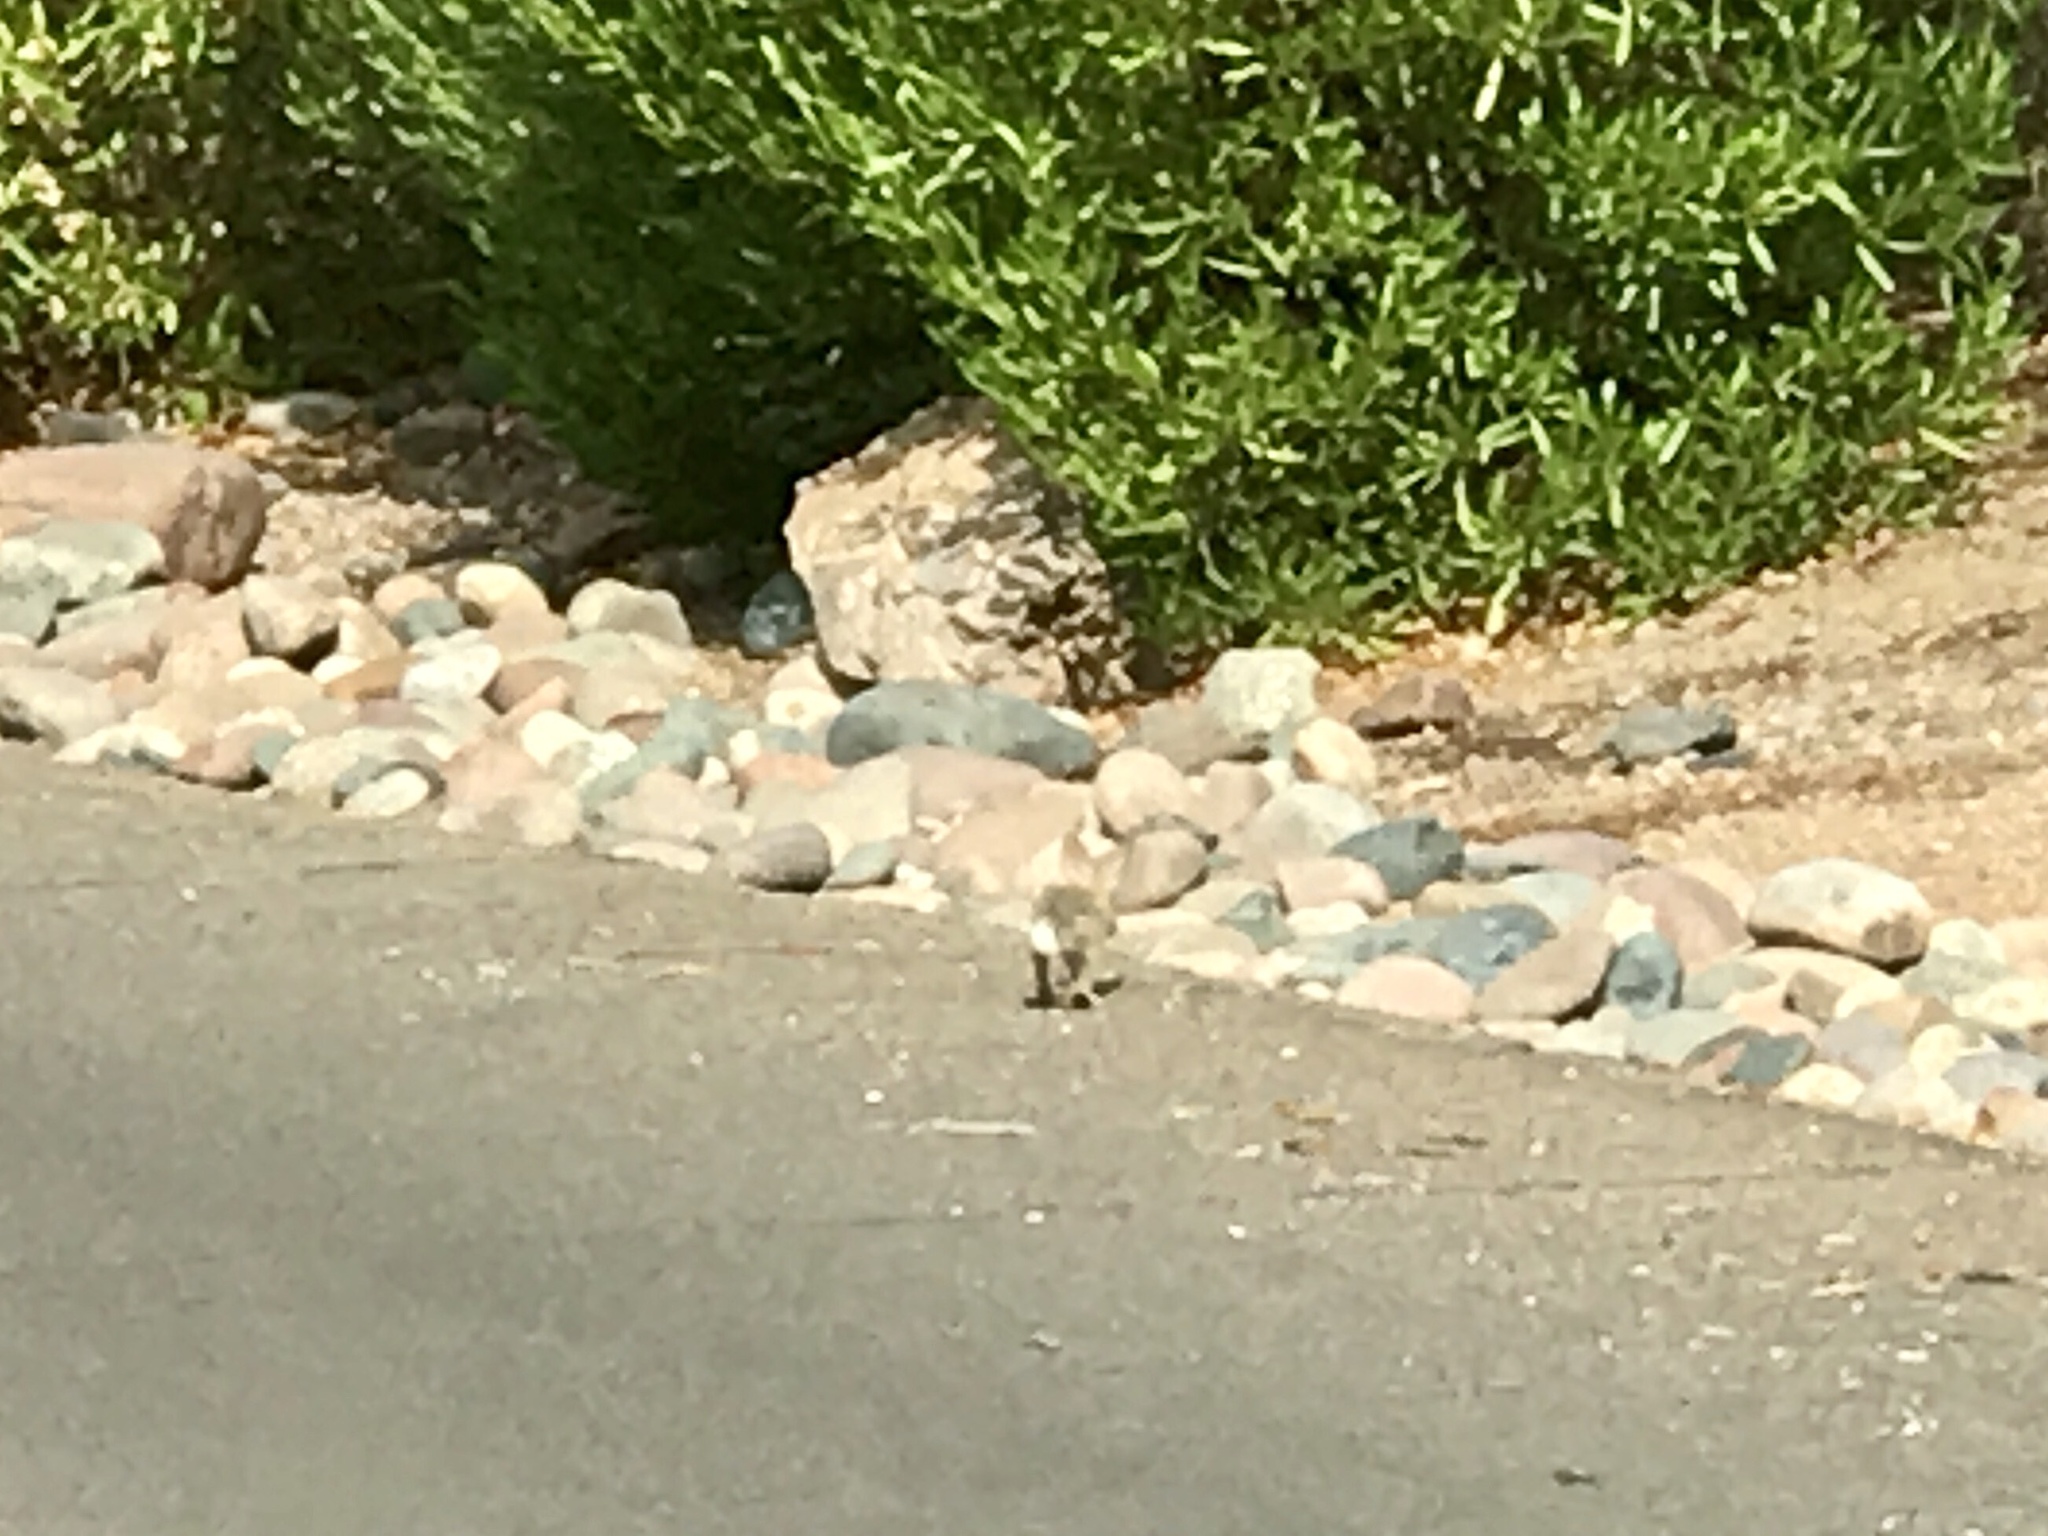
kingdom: Animalia
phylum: Chordata
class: Mammalia
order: Lagomorpha
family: Leporidae
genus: Sylvilagus
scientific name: Sylvilagus audubonii
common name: Desert cottontail
